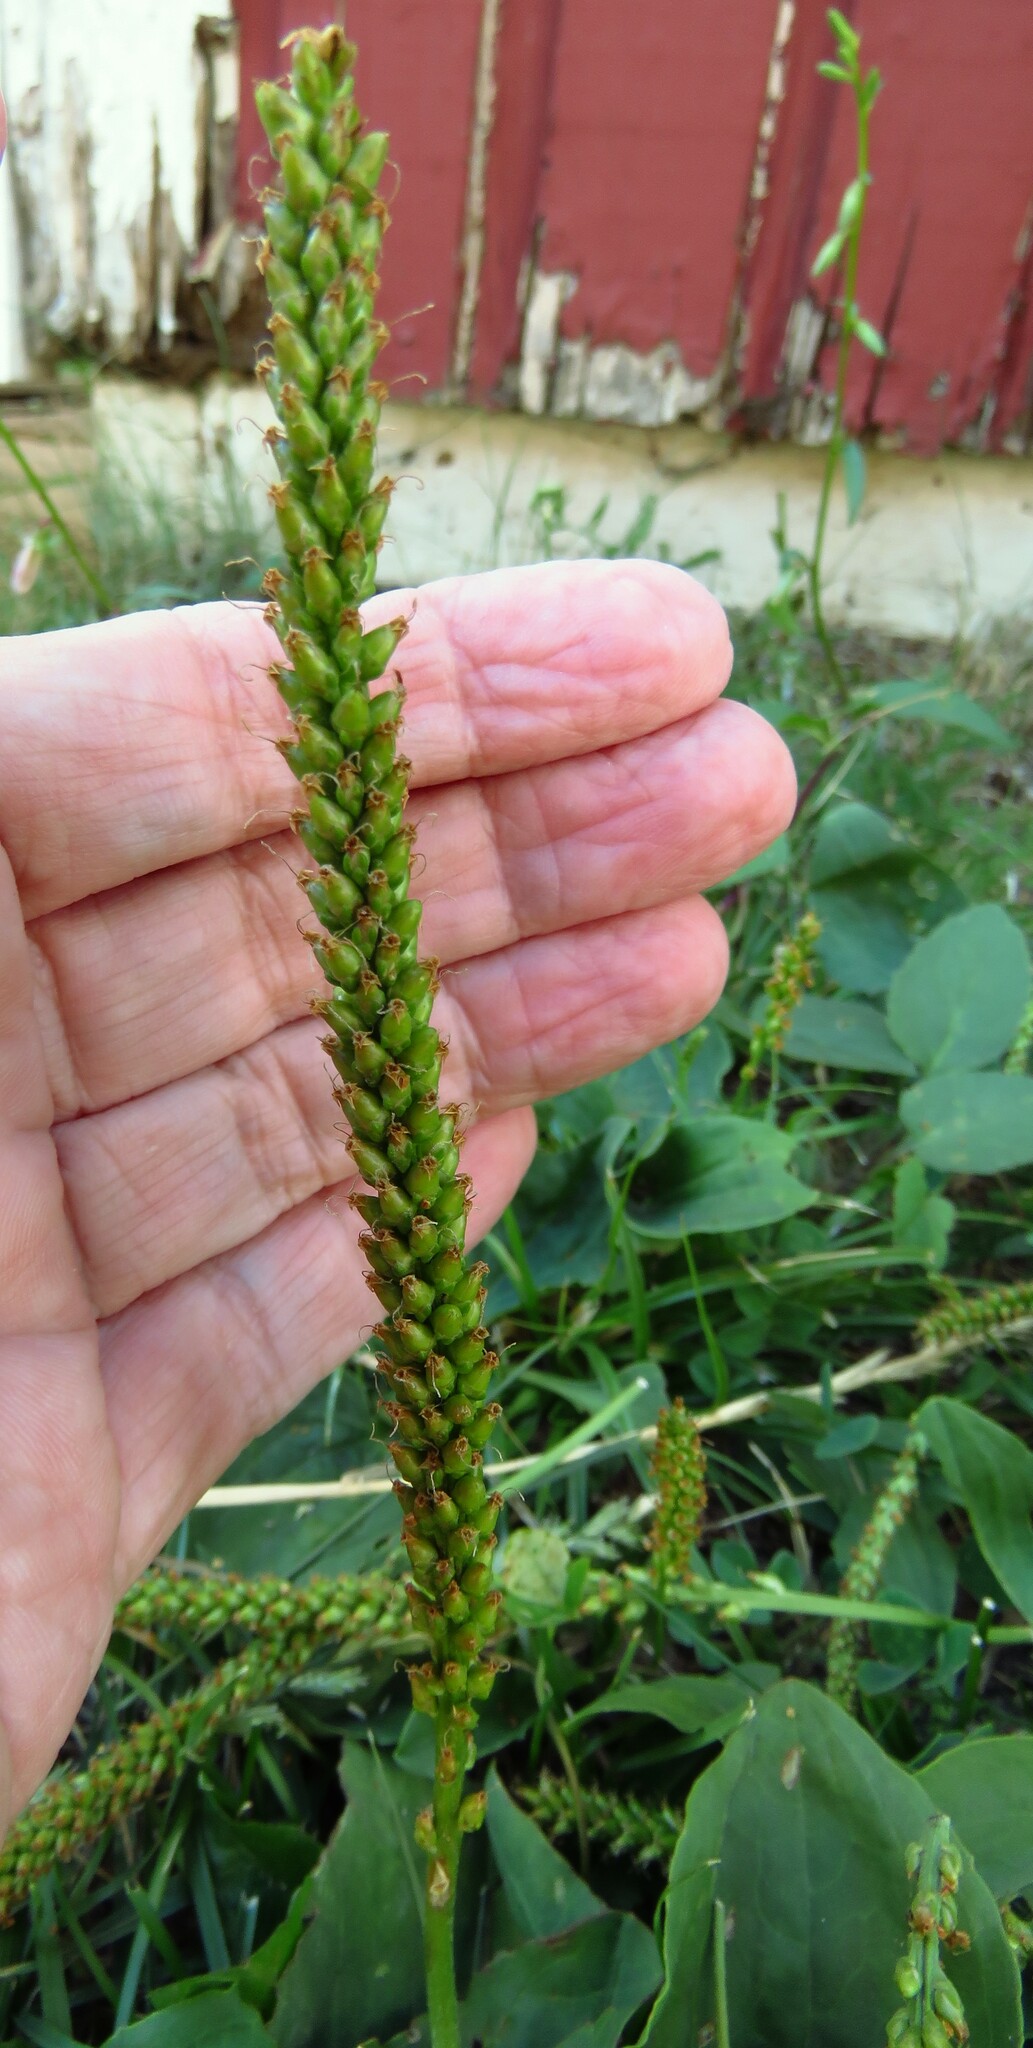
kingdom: Plantae
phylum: Tracheophyta
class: Magnoliopsida
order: Lamiales
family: Plantaginaceae
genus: Plantago
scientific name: Plantago major
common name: Common plantain
